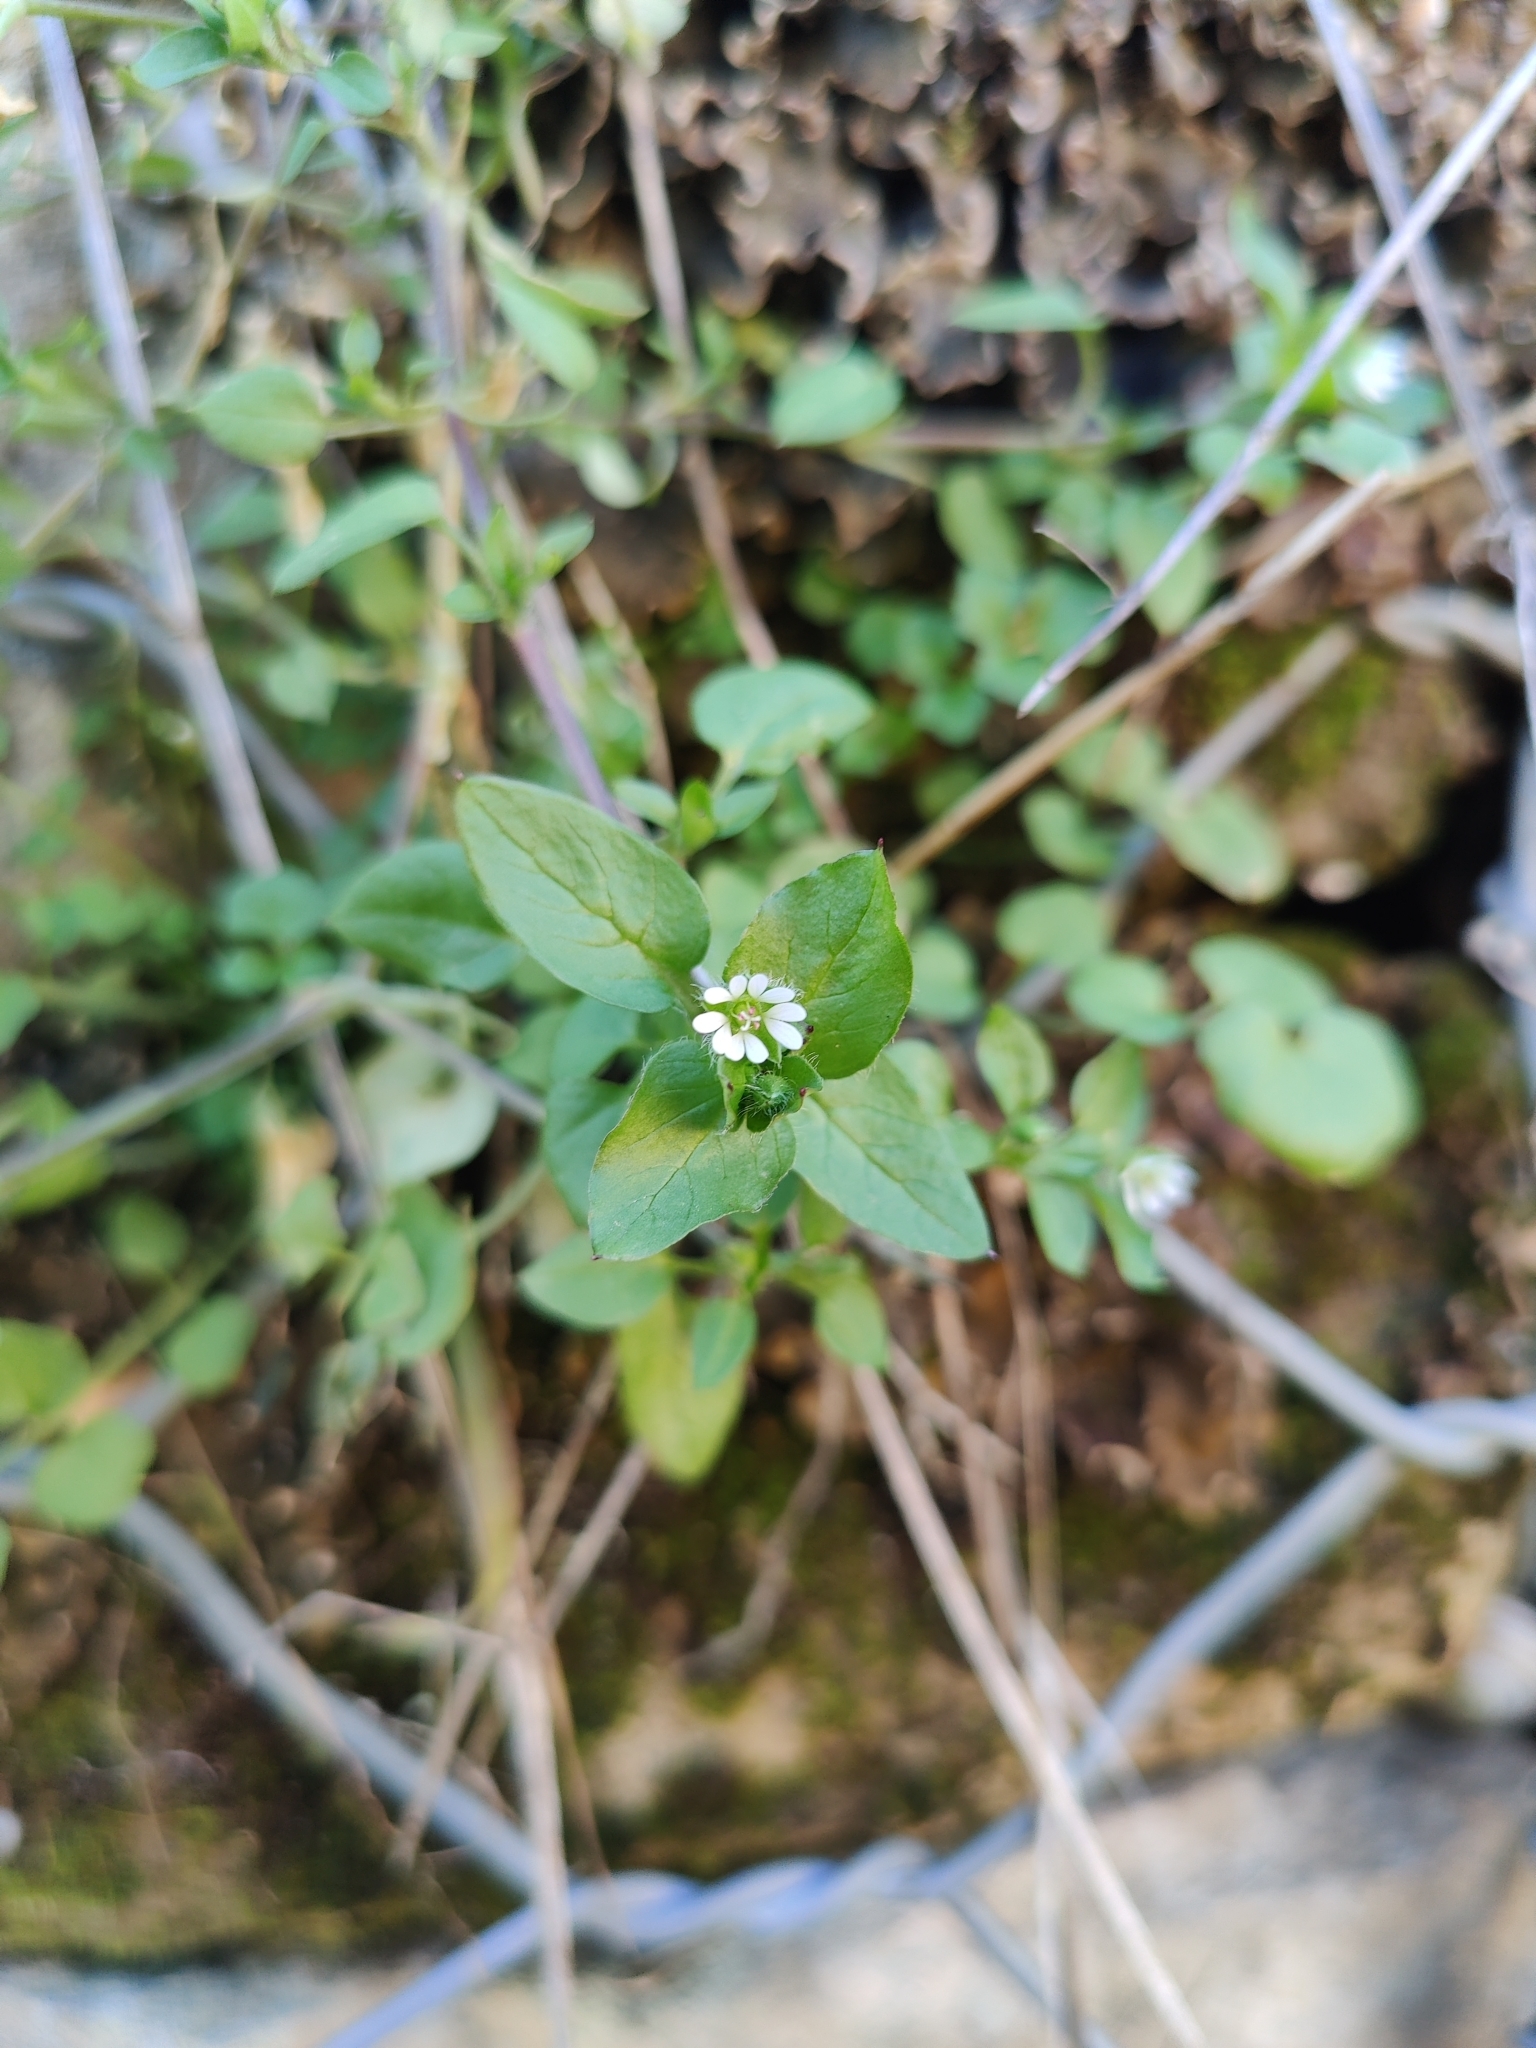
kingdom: Plantae
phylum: Tracheophyta
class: Magnoliopsida
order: Caryophyllales
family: Caryophyllaceae
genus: Stellaria
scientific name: Stellaria media
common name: Common chickweed
